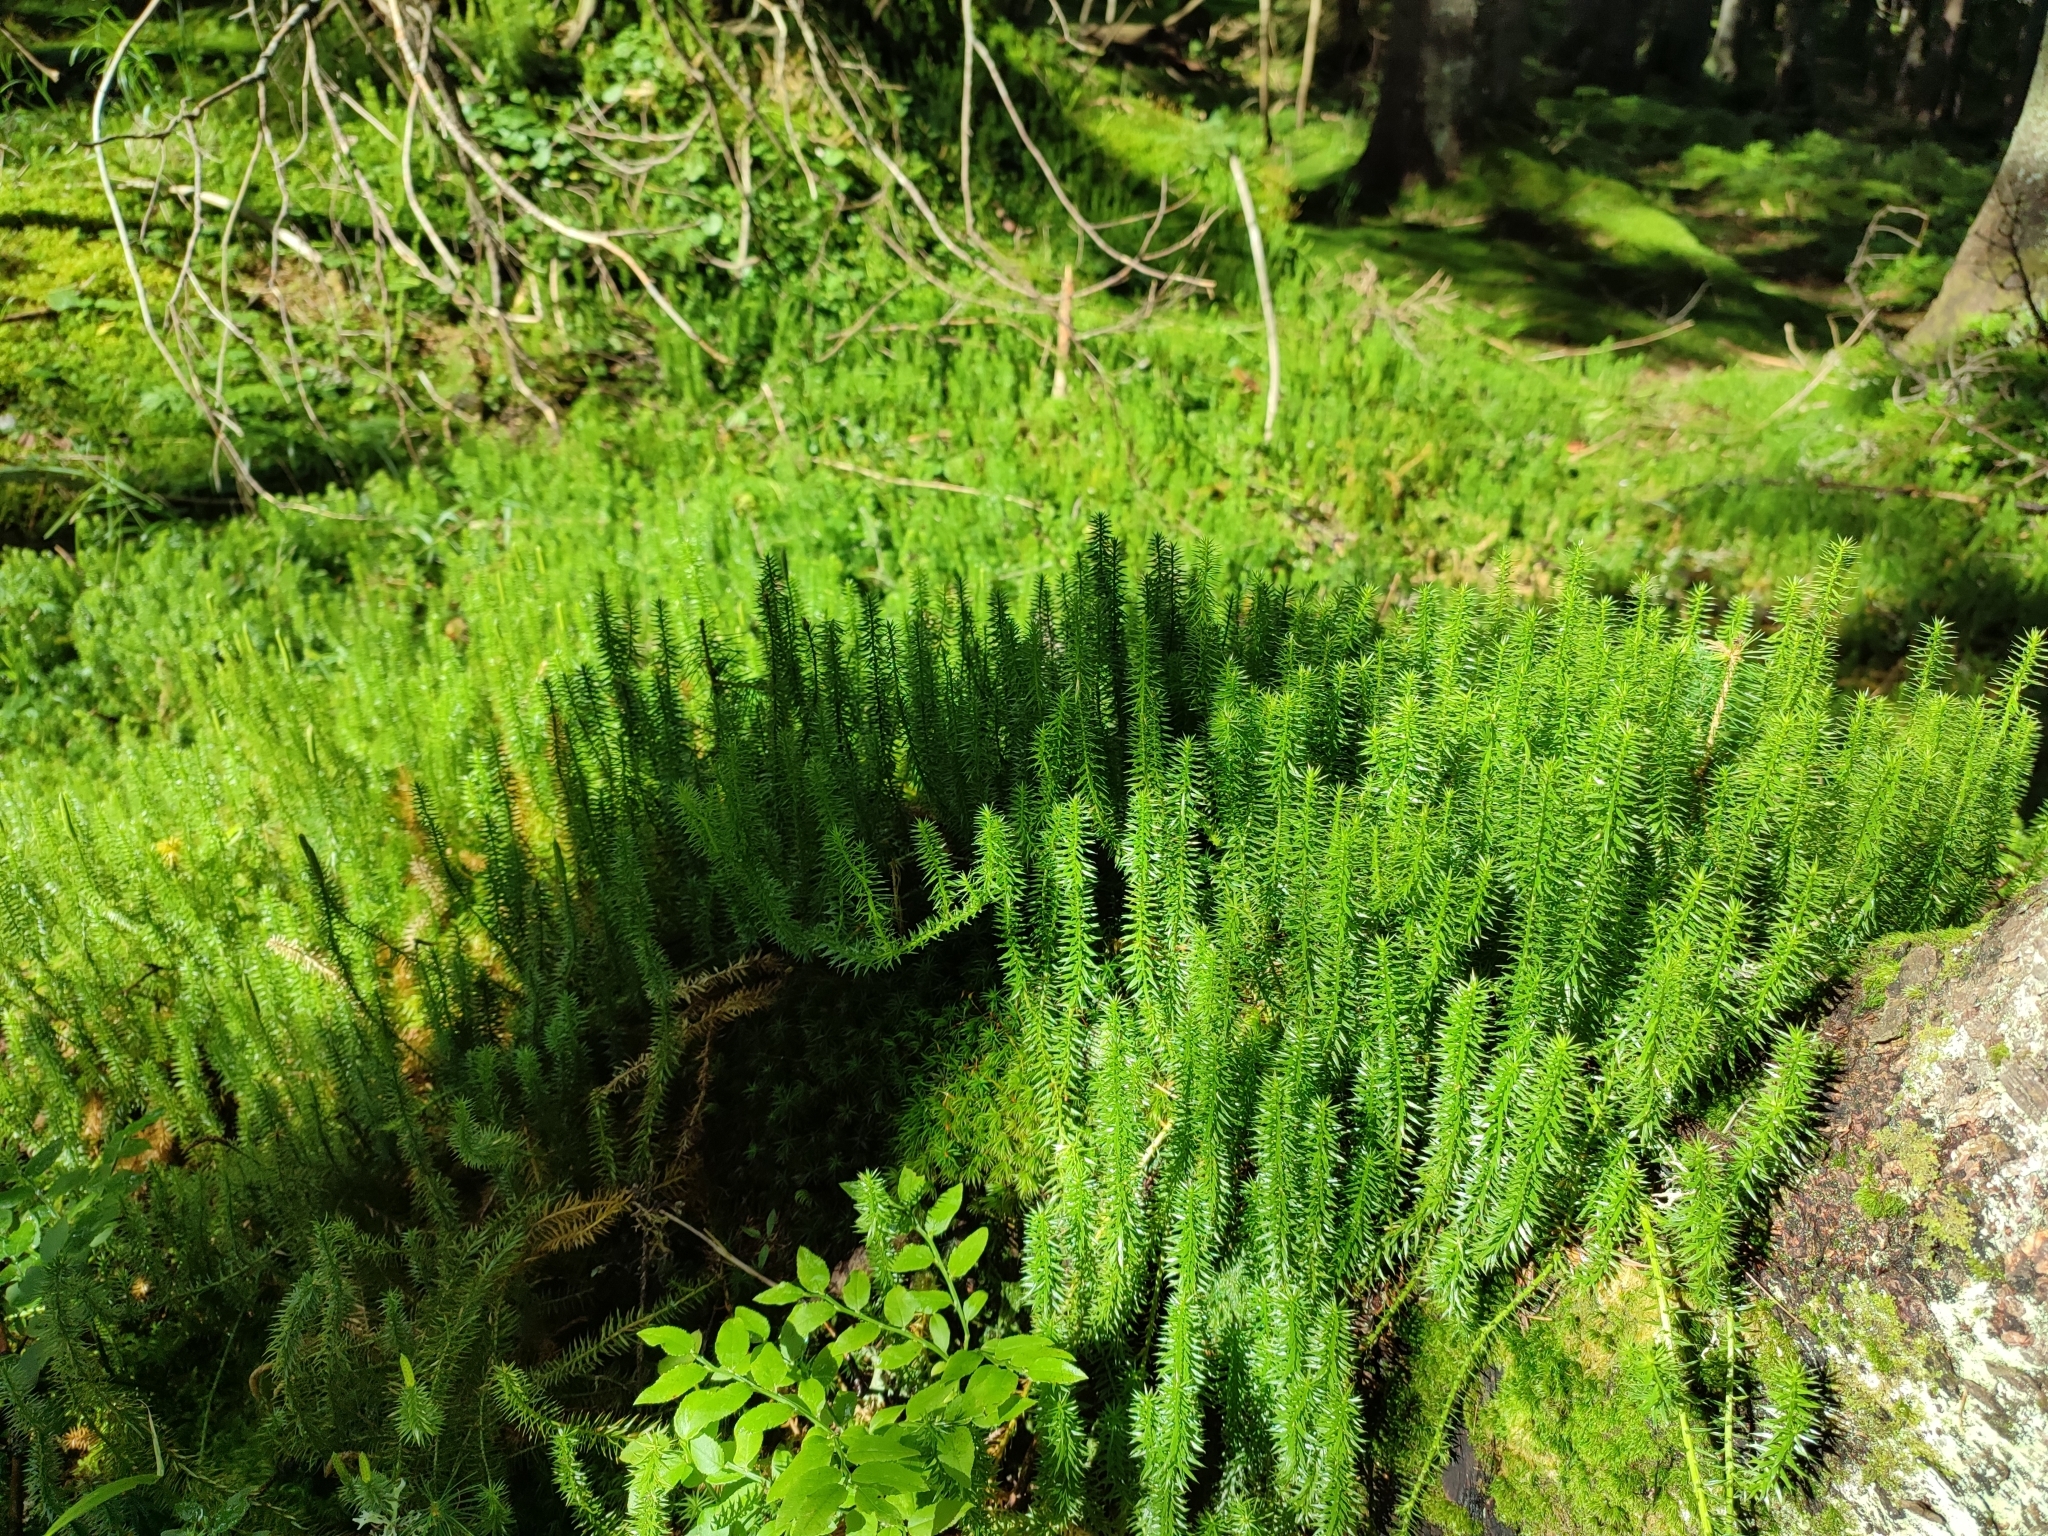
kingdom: Plantae
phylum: Tracheophyta
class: Lycopodiopsida
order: Lycopodiales
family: Lycopodiaceae
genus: Spinulum
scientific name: Spinulum annotinum
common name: Interrupted club-moss
